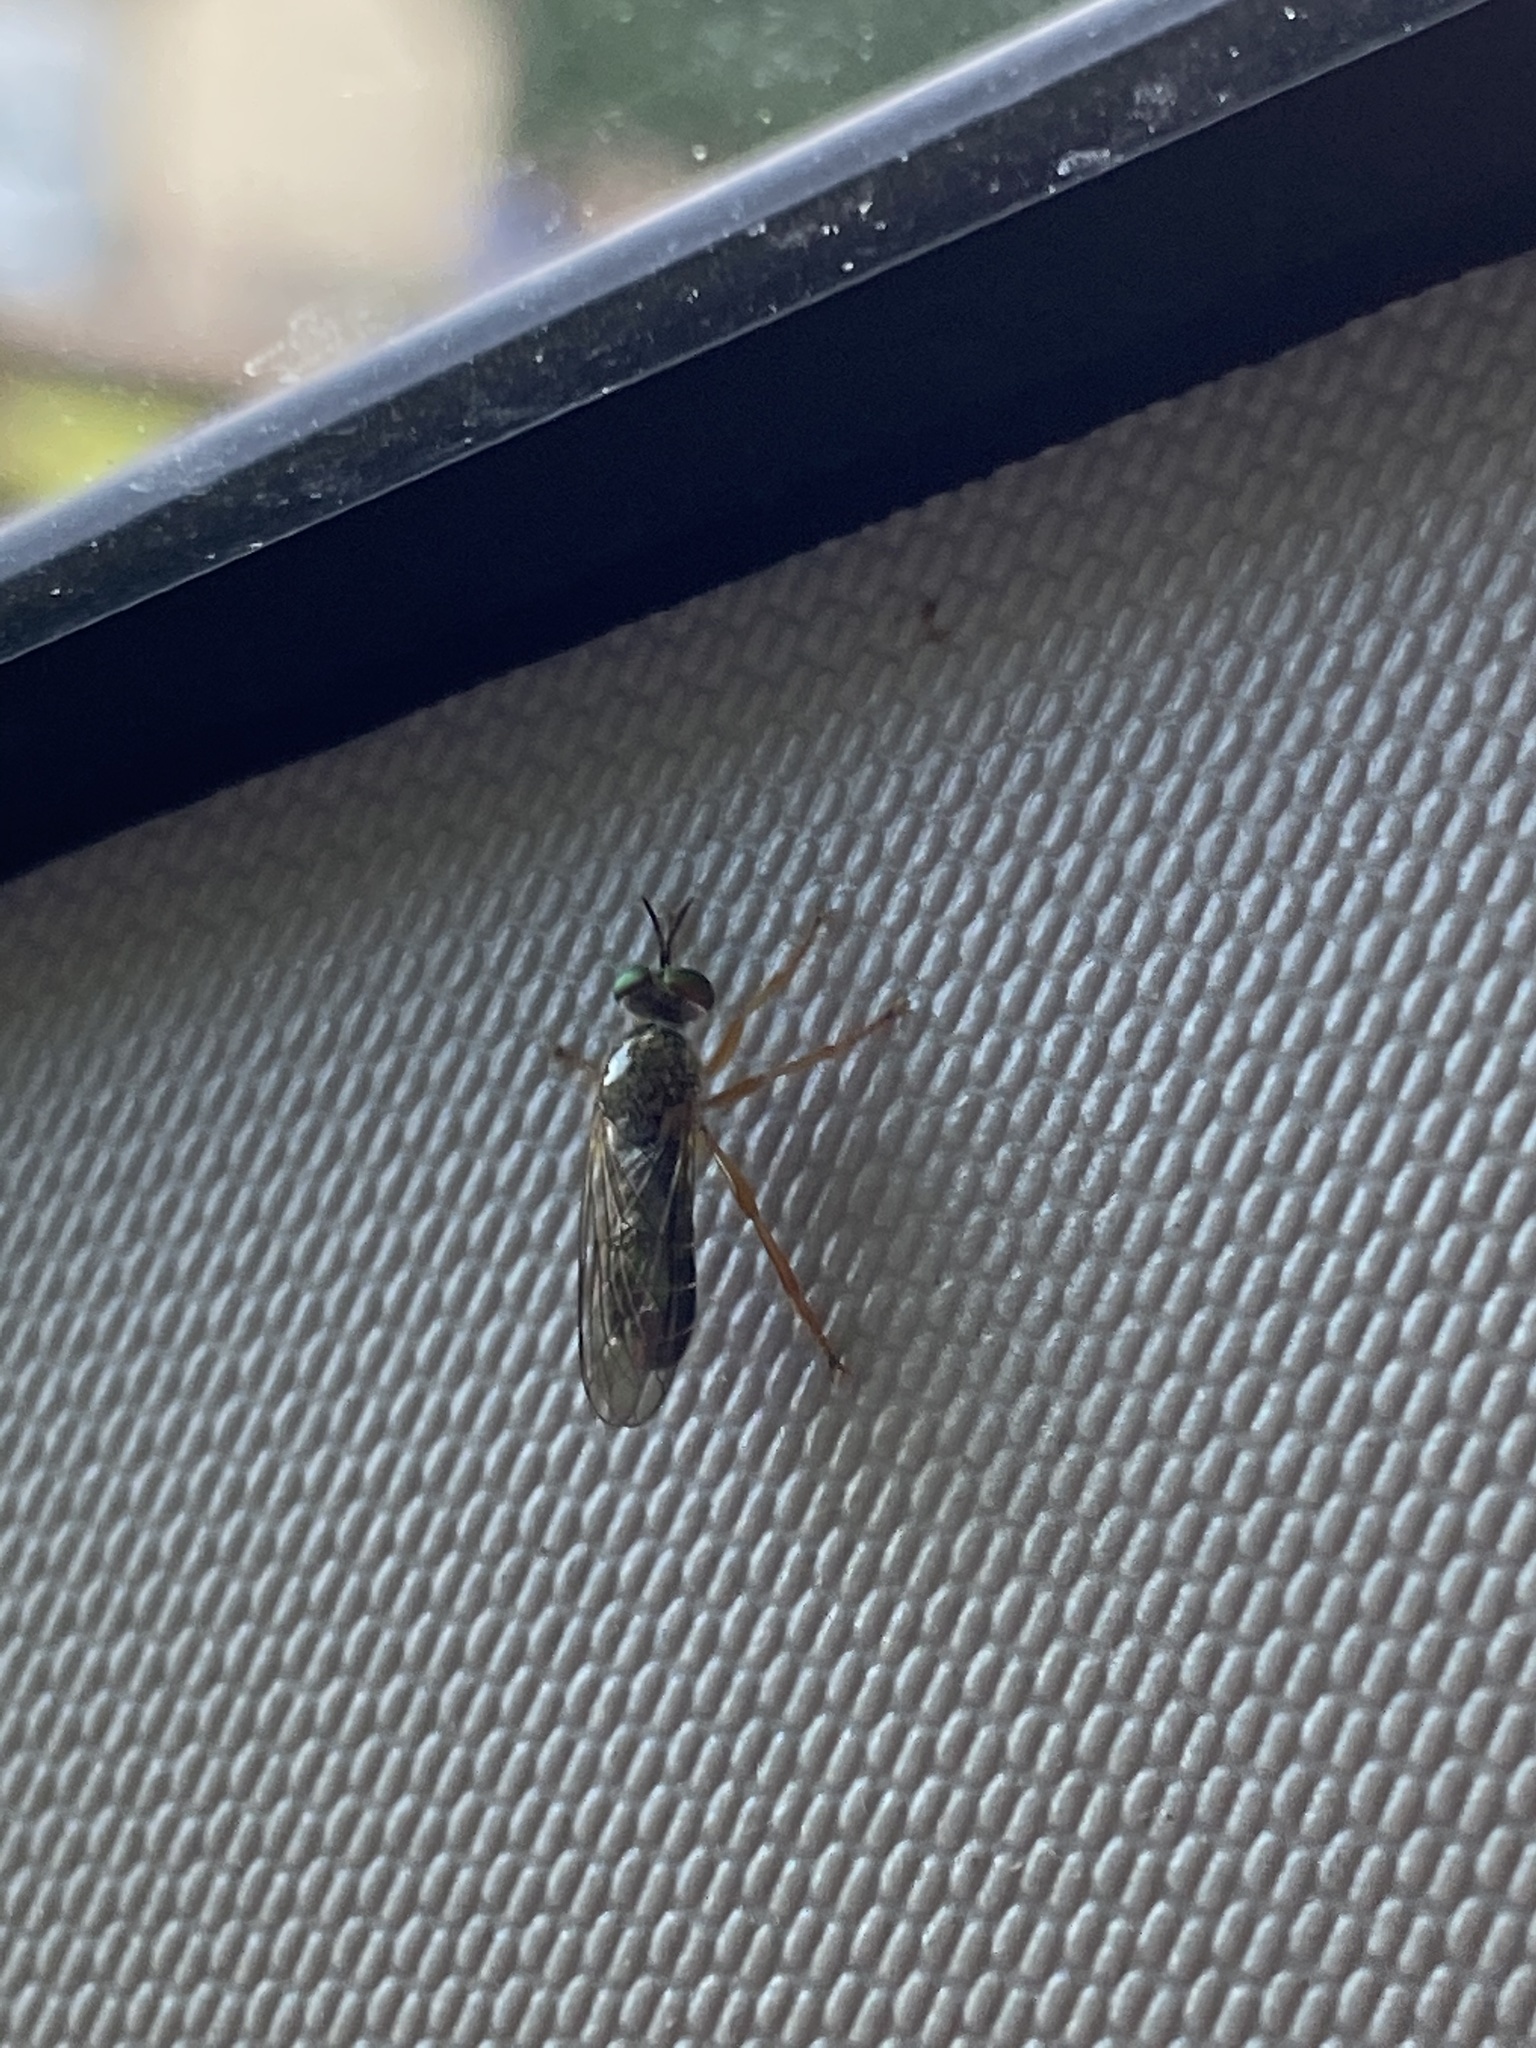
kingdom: Animalia
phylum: Arthropoda
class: Insecta
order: Diptera
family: Asilidae
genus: Atomosia
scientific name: Atomosia sayii
